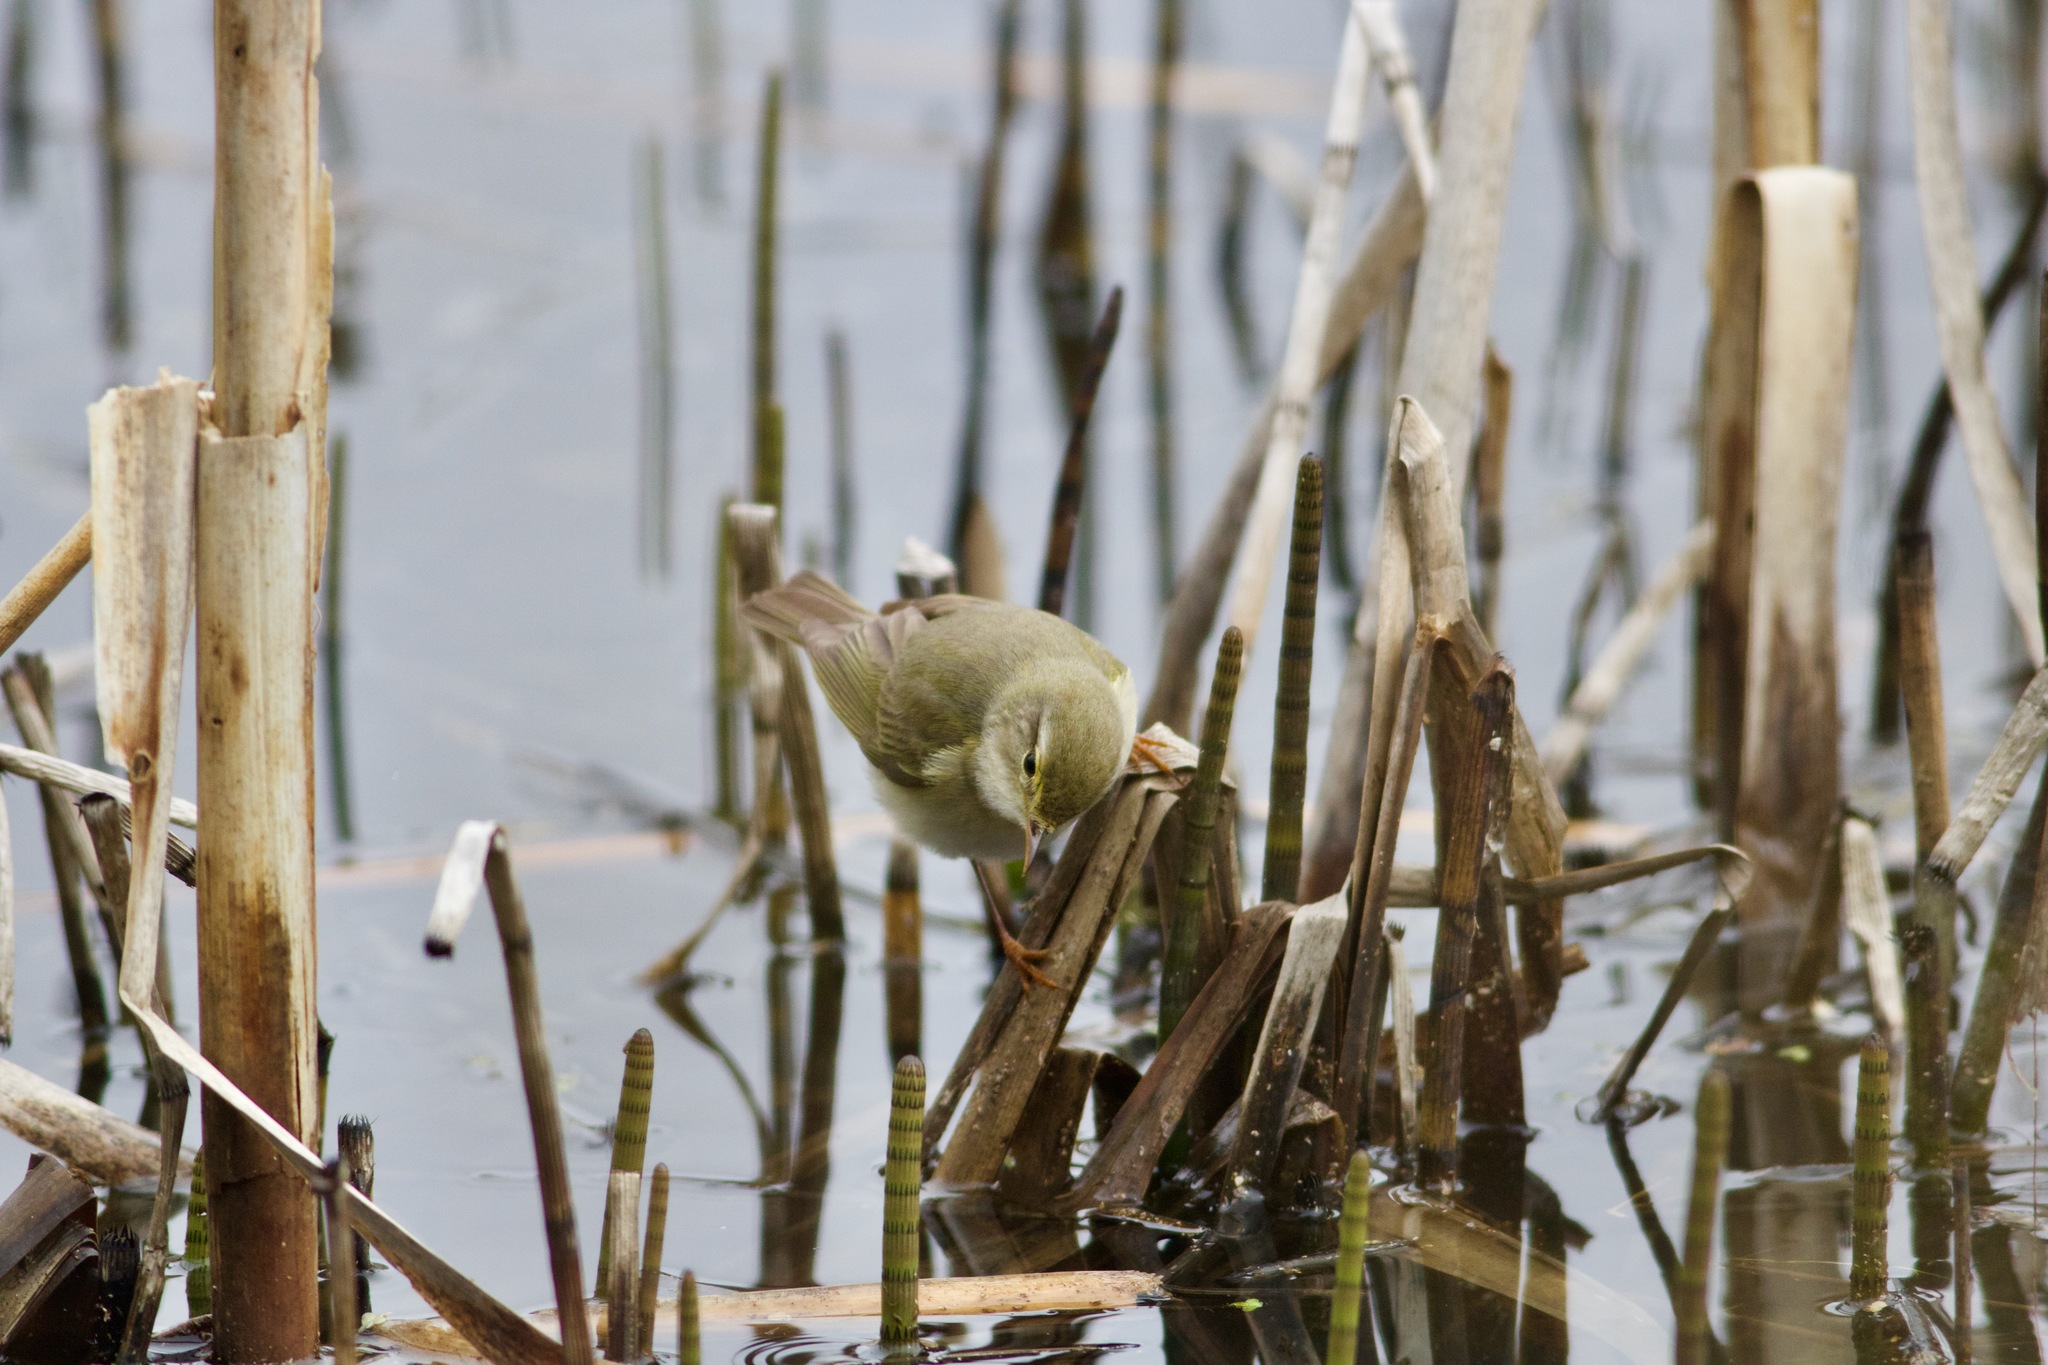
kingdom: Animalia
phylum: Chordata
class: Aves
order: Passeriformes
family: Phylloscopidae
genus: Phylloscopus
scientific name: Phylloscopus collybita
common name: Common chiffchaff
